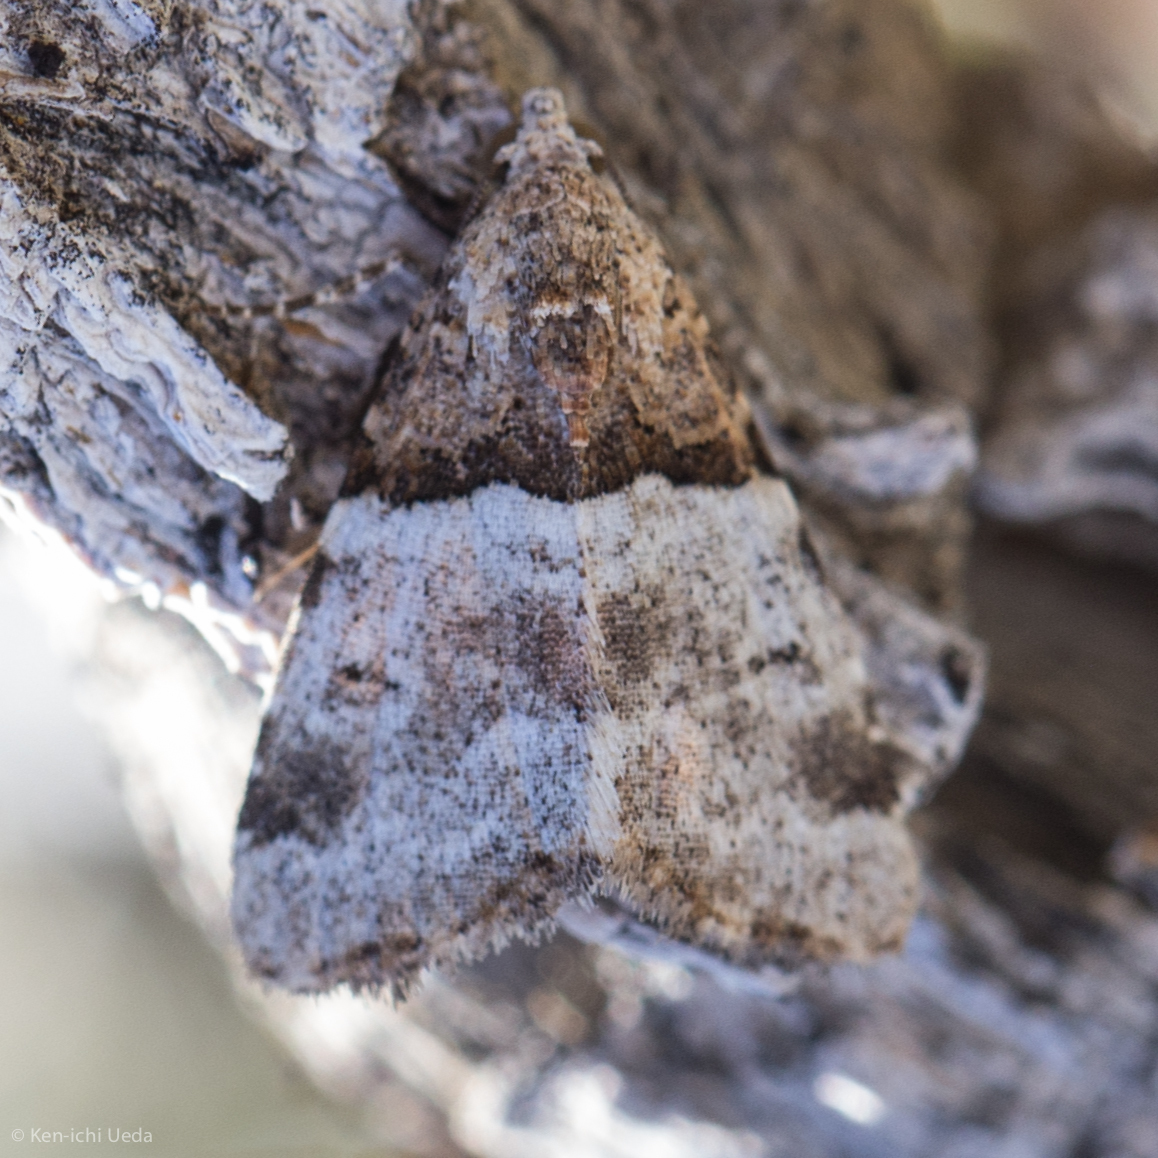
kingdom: Animalia
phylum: Arthropoda
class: Insecta
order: Lepidoptera
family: Noctuidae
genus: Cobubatha
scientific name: Cobubatha dividua
